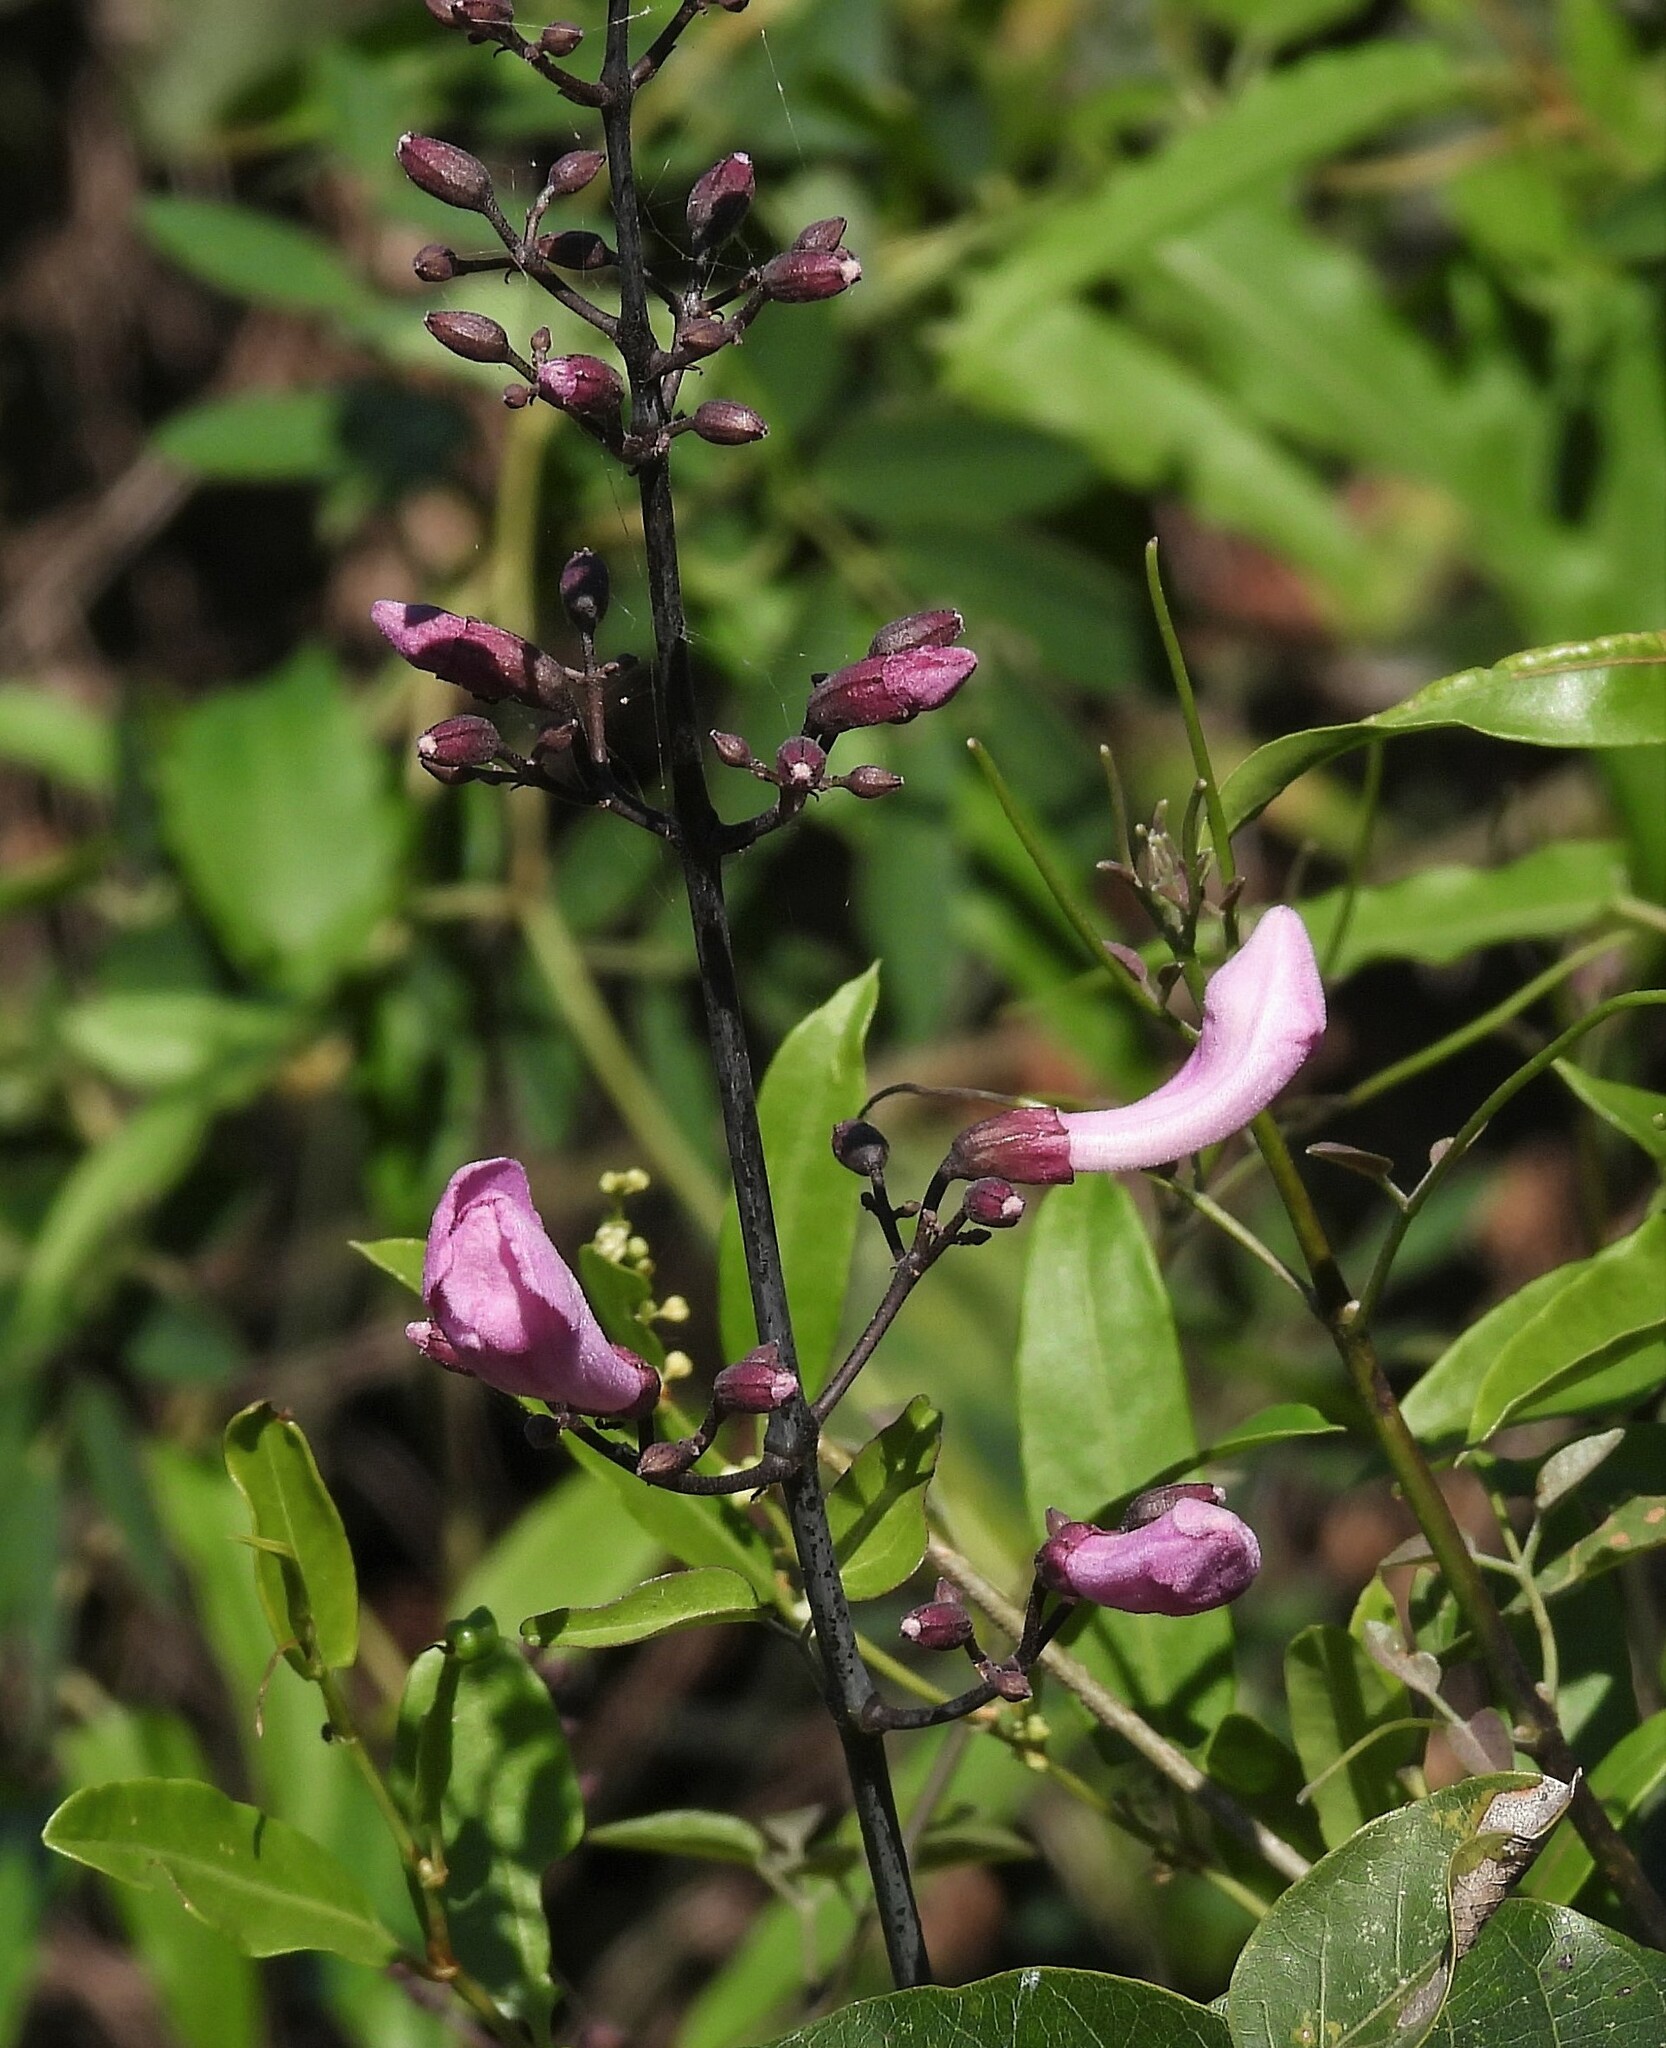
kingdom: Plantae
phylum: Tracheophyta
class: Magnoliopsida
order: Lamiales
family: Bignoniaceae
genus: Tanaecium
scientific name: Tanaecium dichotomum
